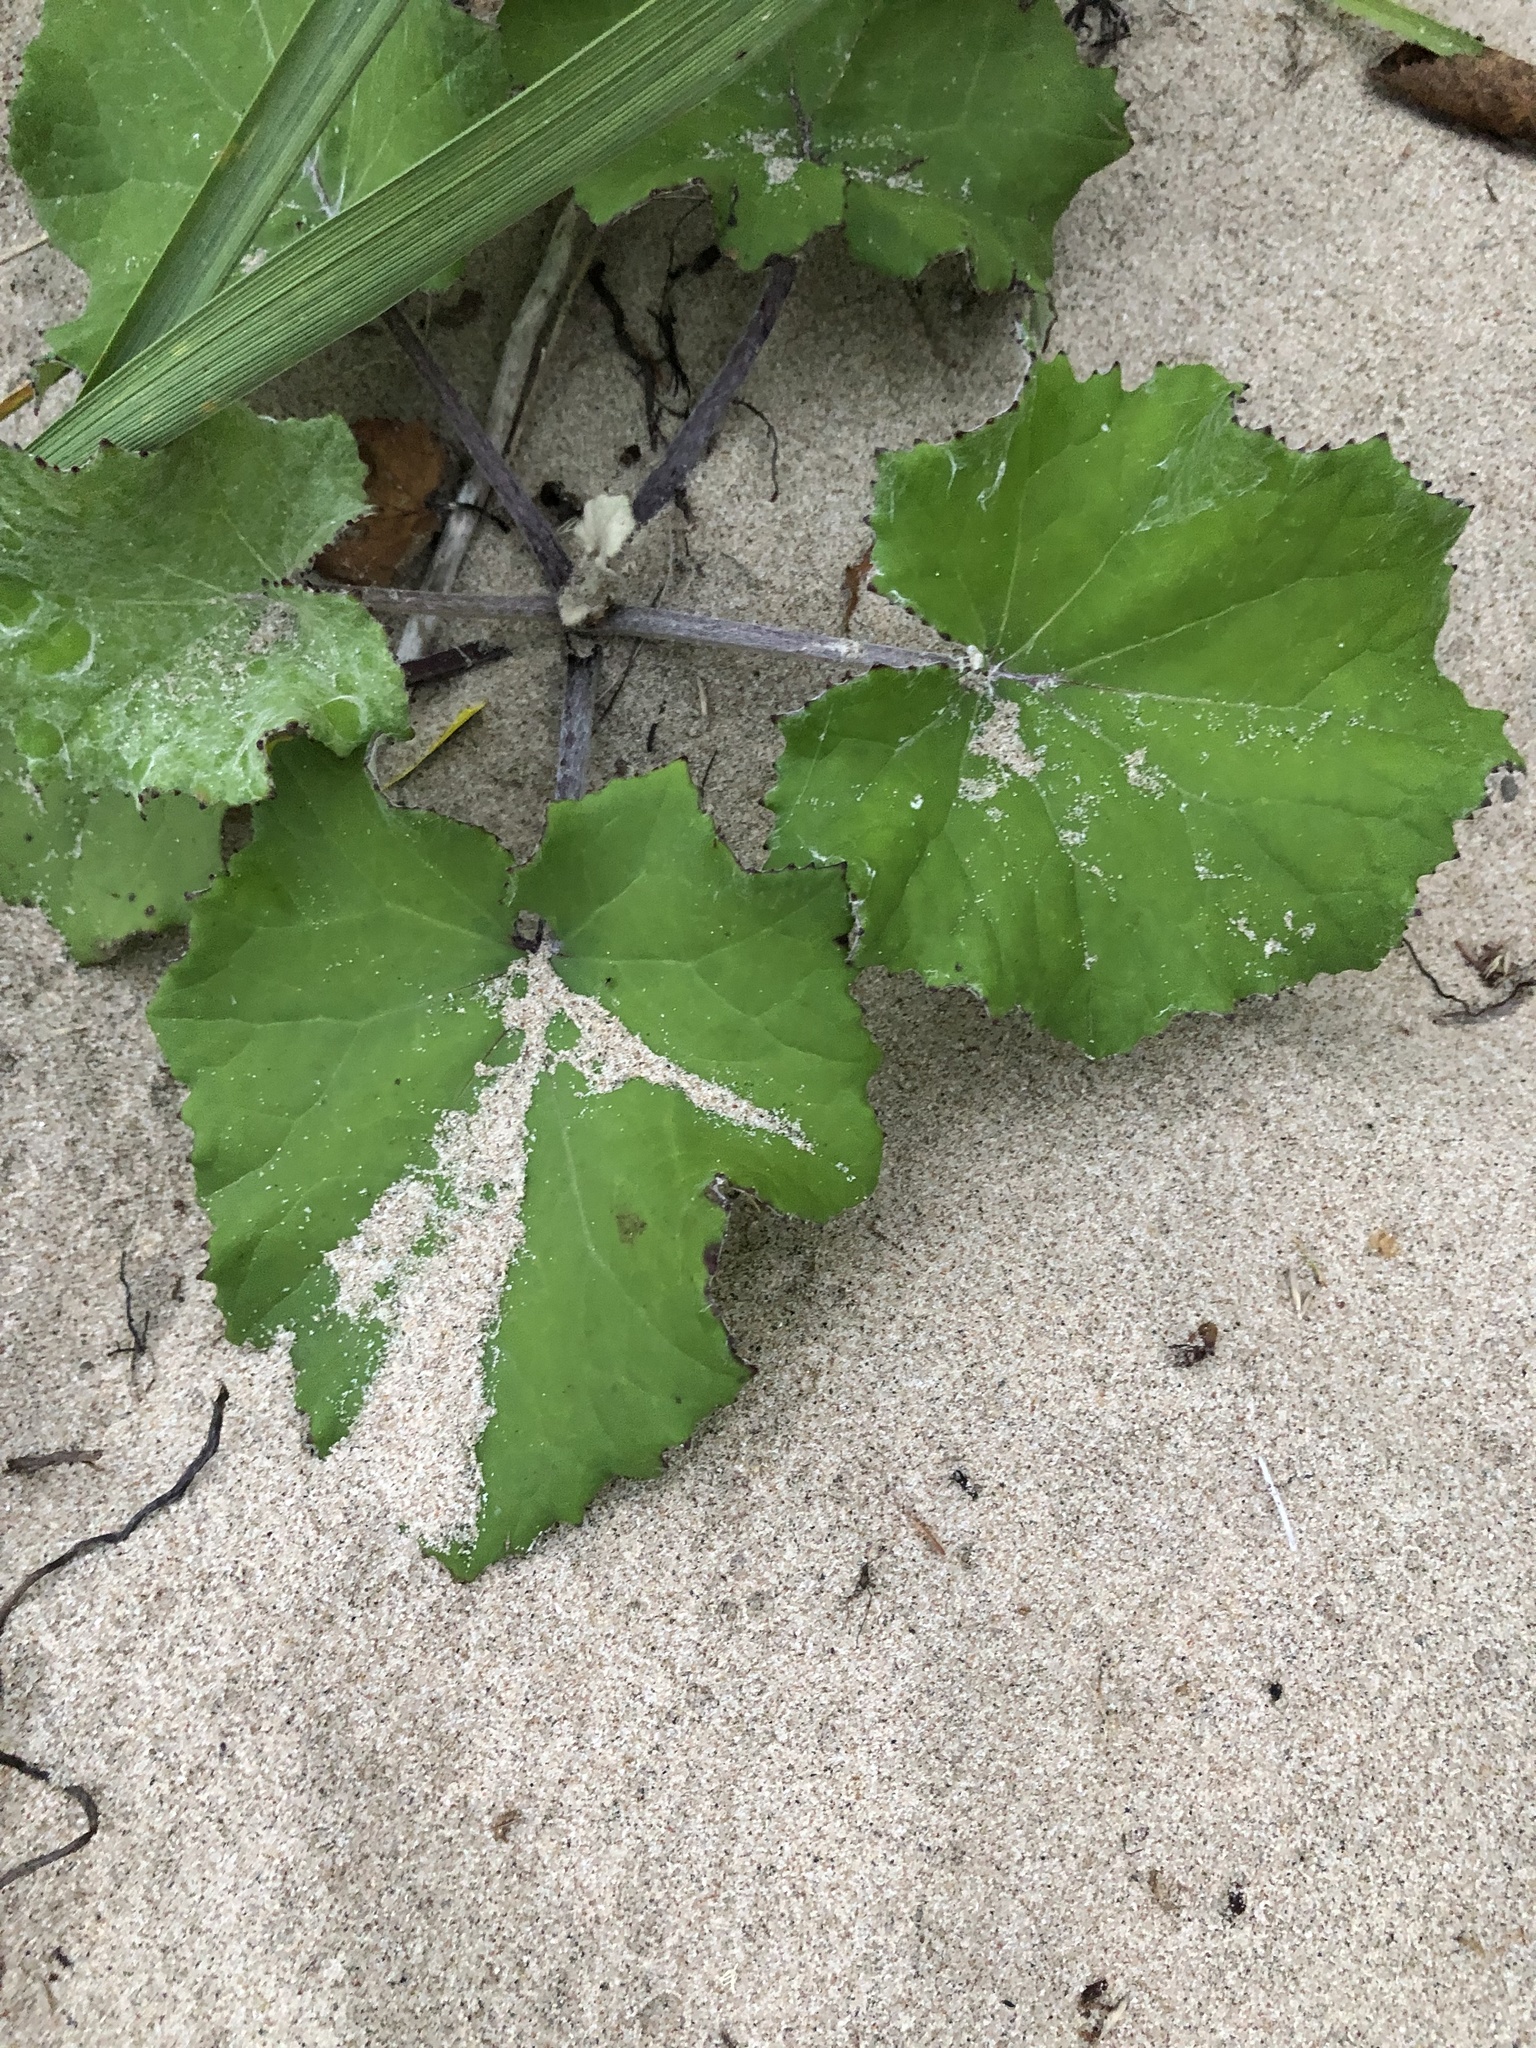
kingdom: Plantae
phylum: Tracheophyta
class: Magnoliopsida
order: Asterales
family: Asteraceae
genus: Tussilago
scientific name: Tussilago farfara
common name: Coltsfoot
